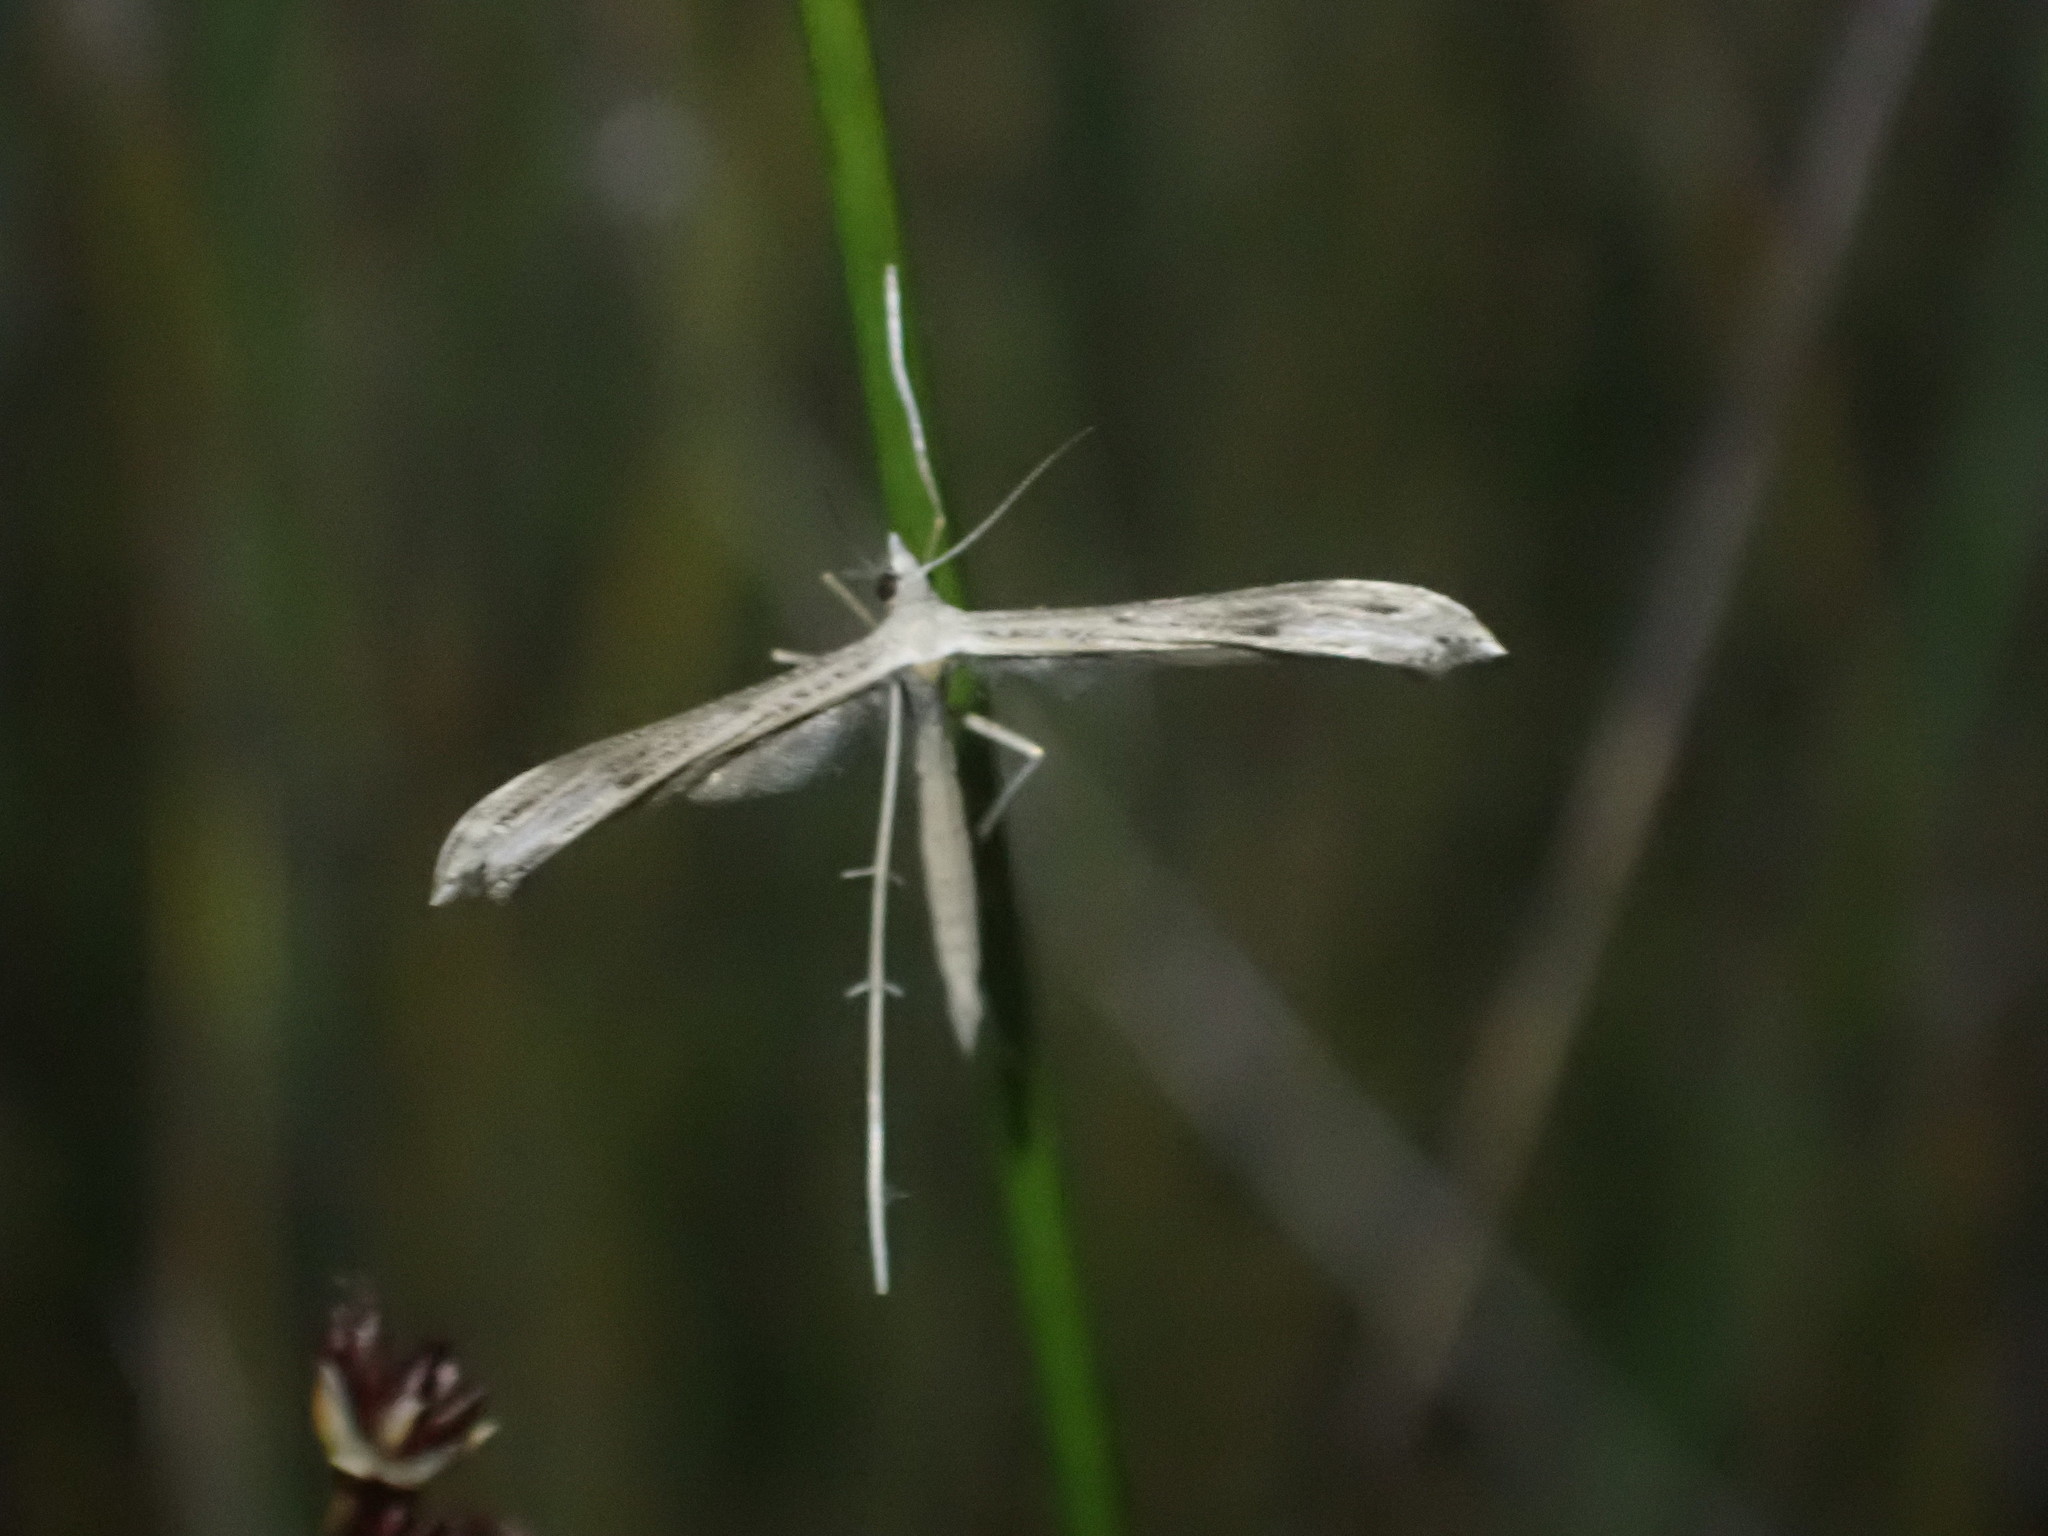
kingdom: Animalia
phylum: Arthropoda
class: Insecta
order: Lepidoptera
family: Pterophoridae
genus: Stenoptilia
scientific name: Stenoptilia zophodactylus
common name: Dowdy plume
